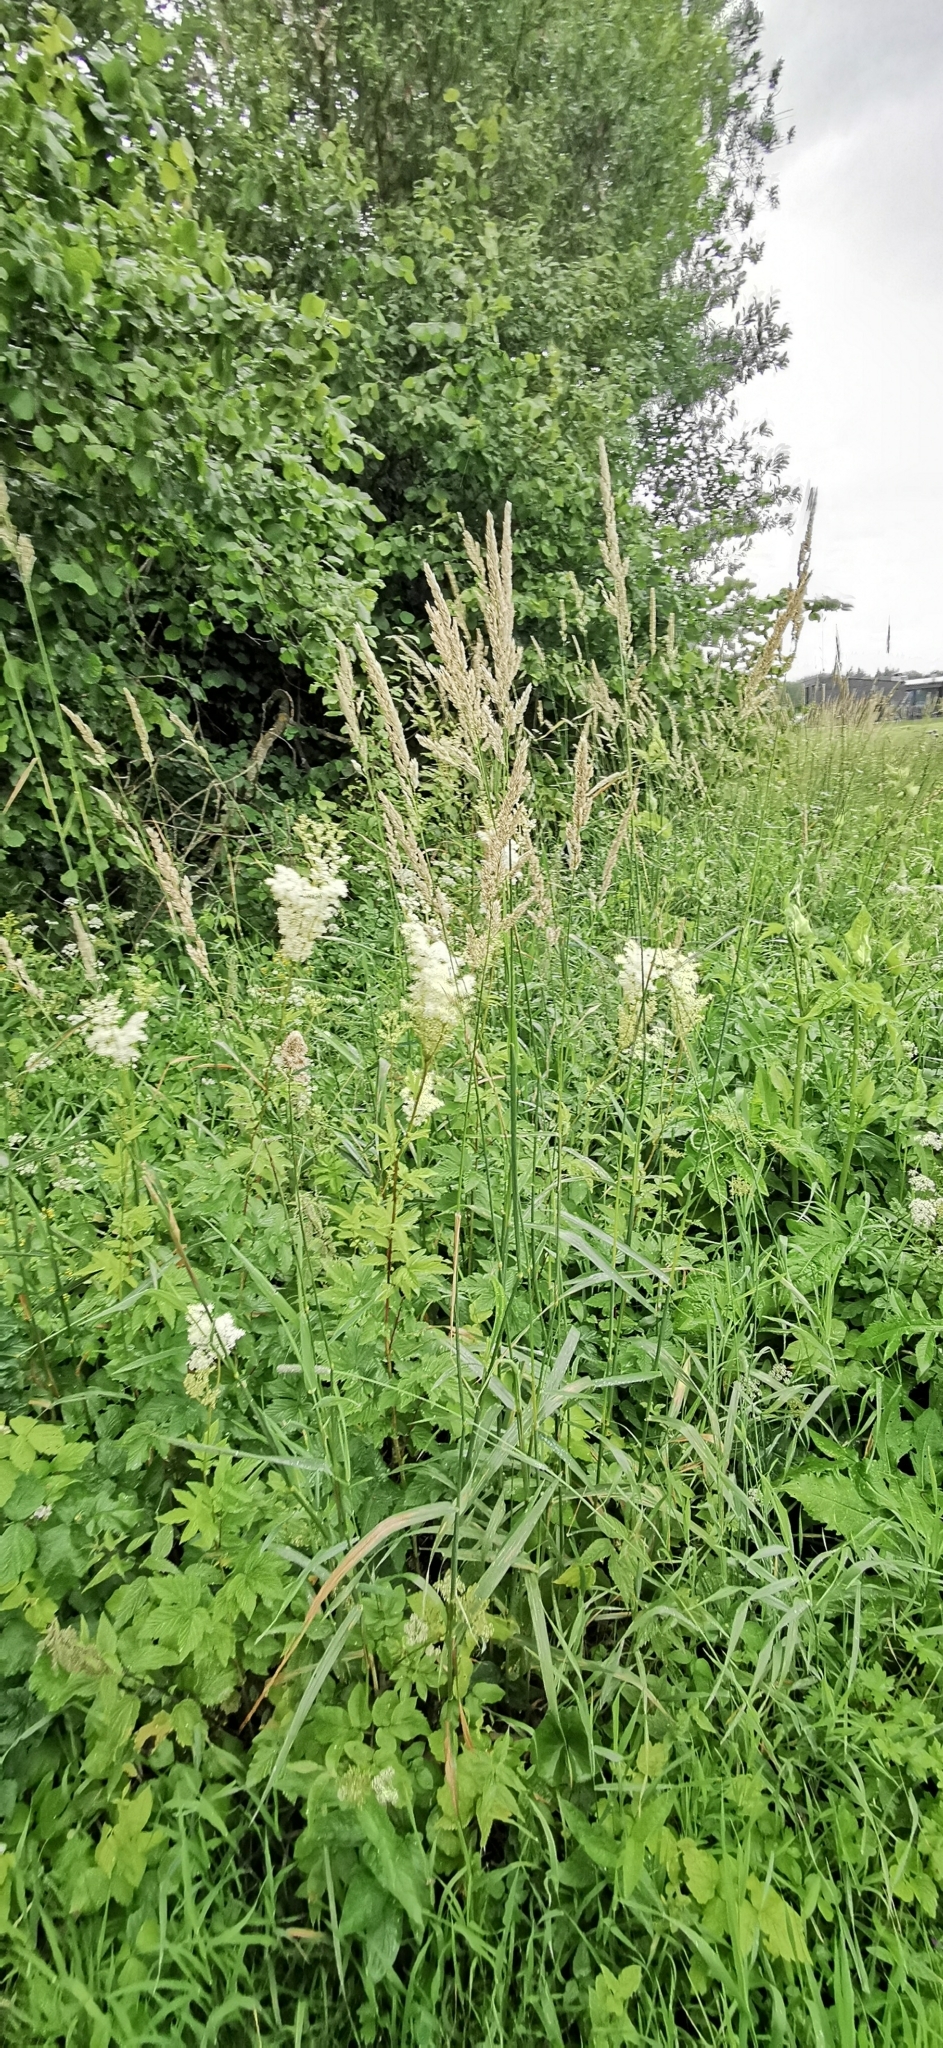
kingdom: Plantae
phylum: Tracheophyta
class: Liliopsida
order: Poales
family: Poaceae
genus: Phalaris
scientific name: Phalaris arundinacea
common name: Reed canary-grass
